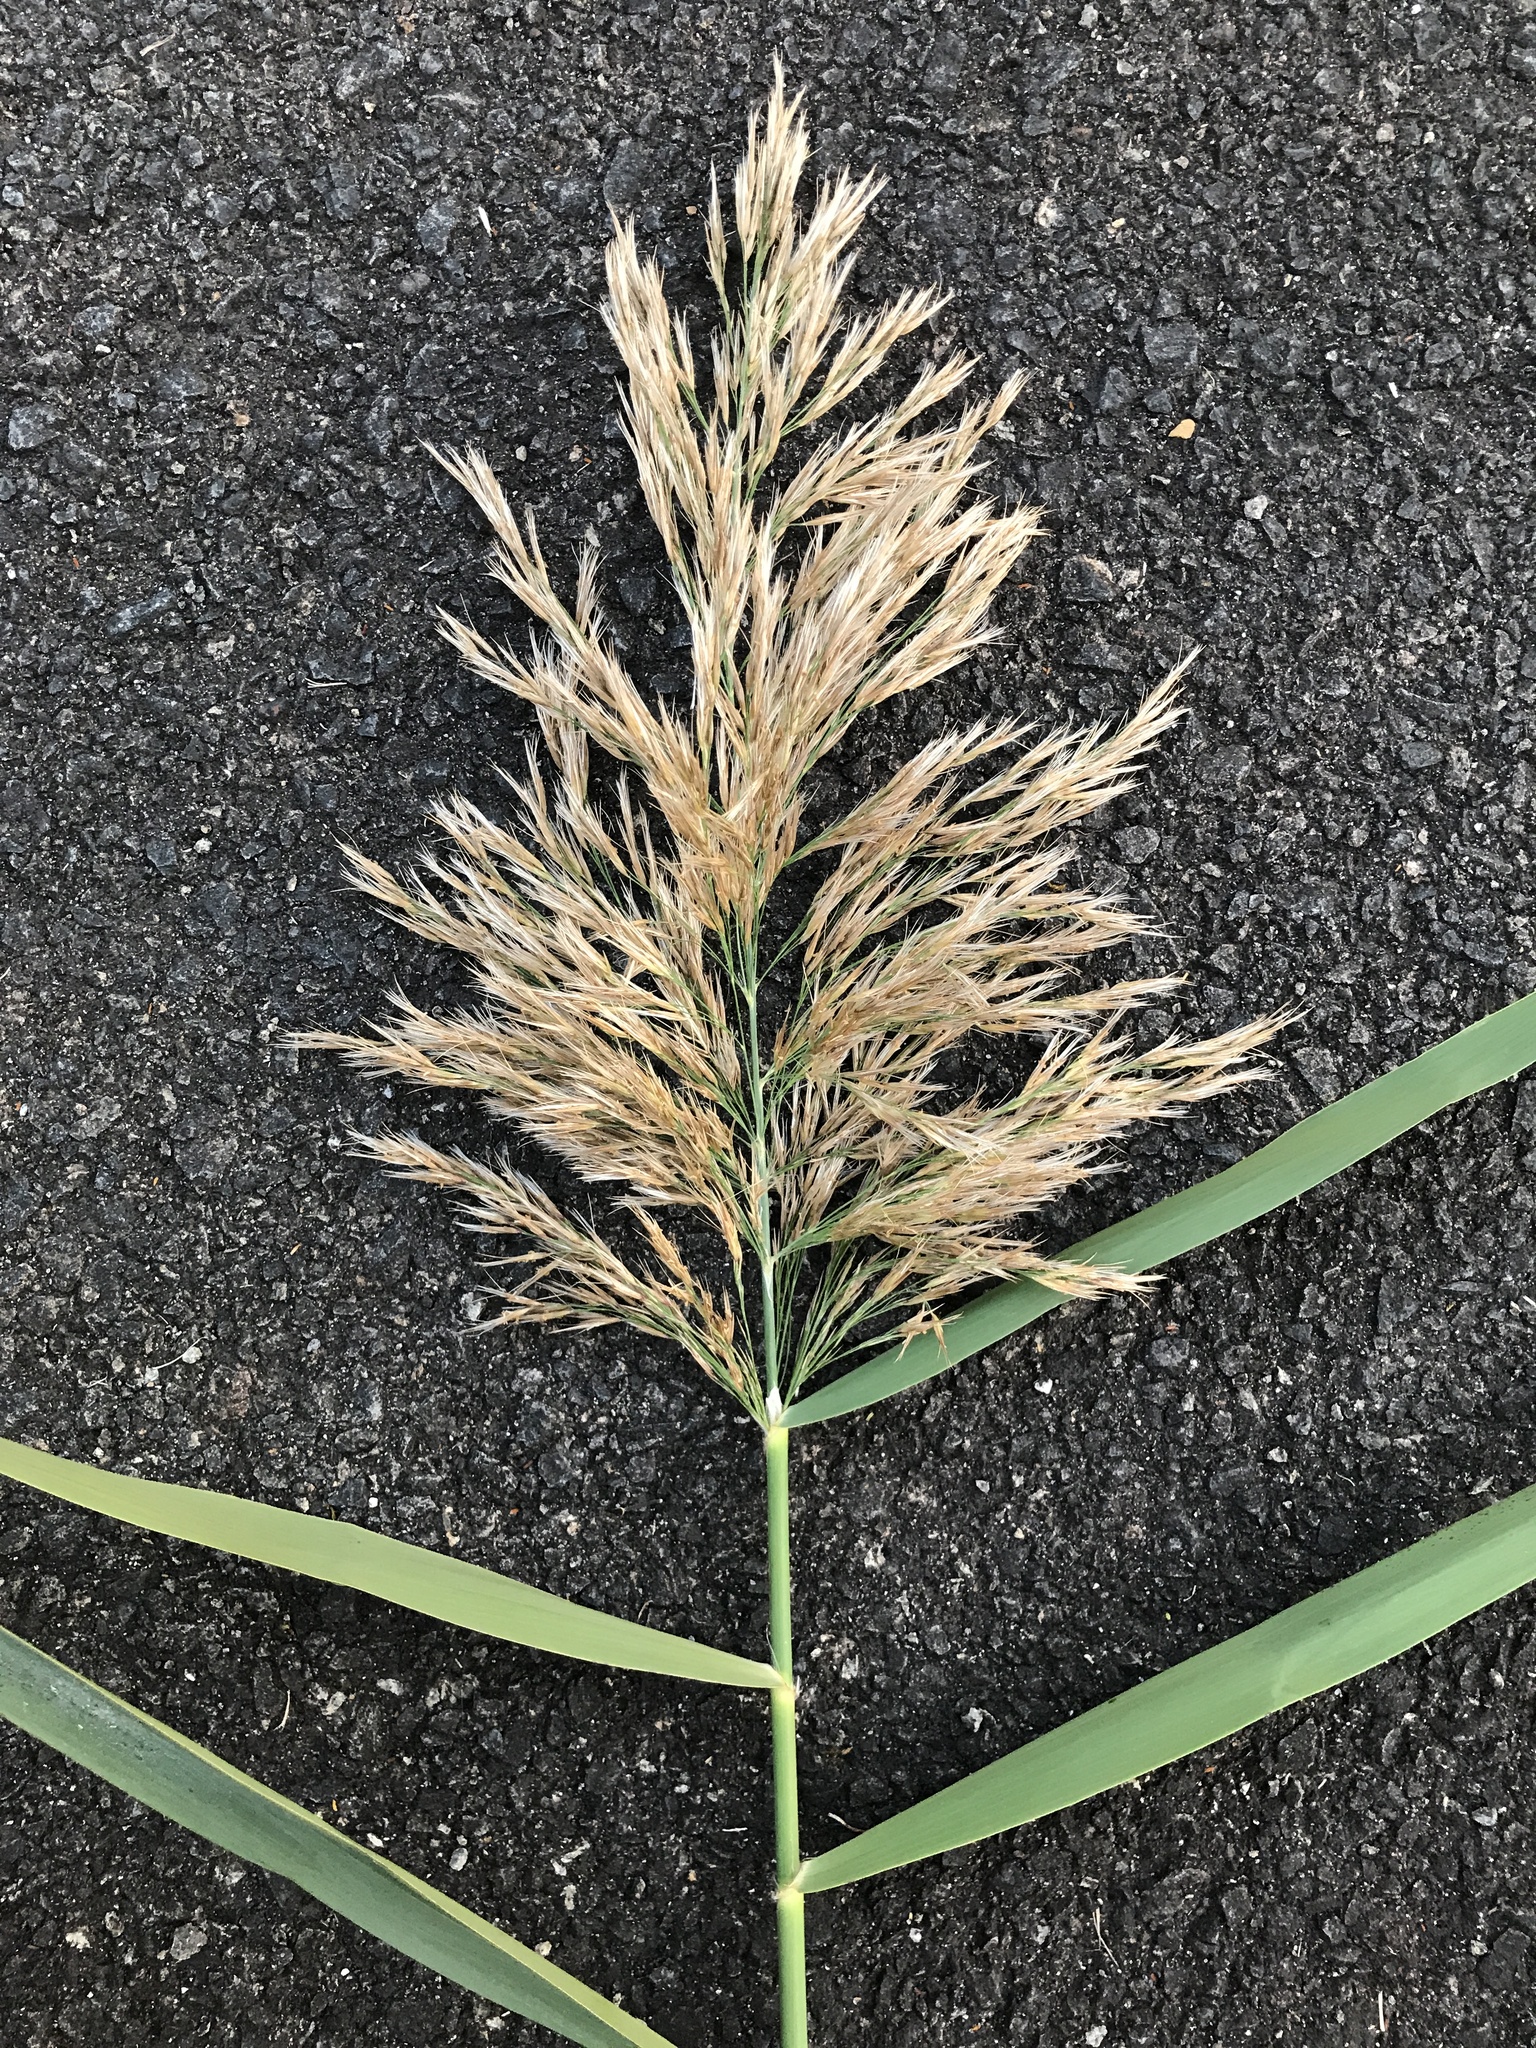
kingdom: Plantae
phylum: Tracheophyta
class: Liliopsida
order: Poales
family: Poaceae
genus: Phragmites
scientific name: Phragmites australis
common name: Common reed
